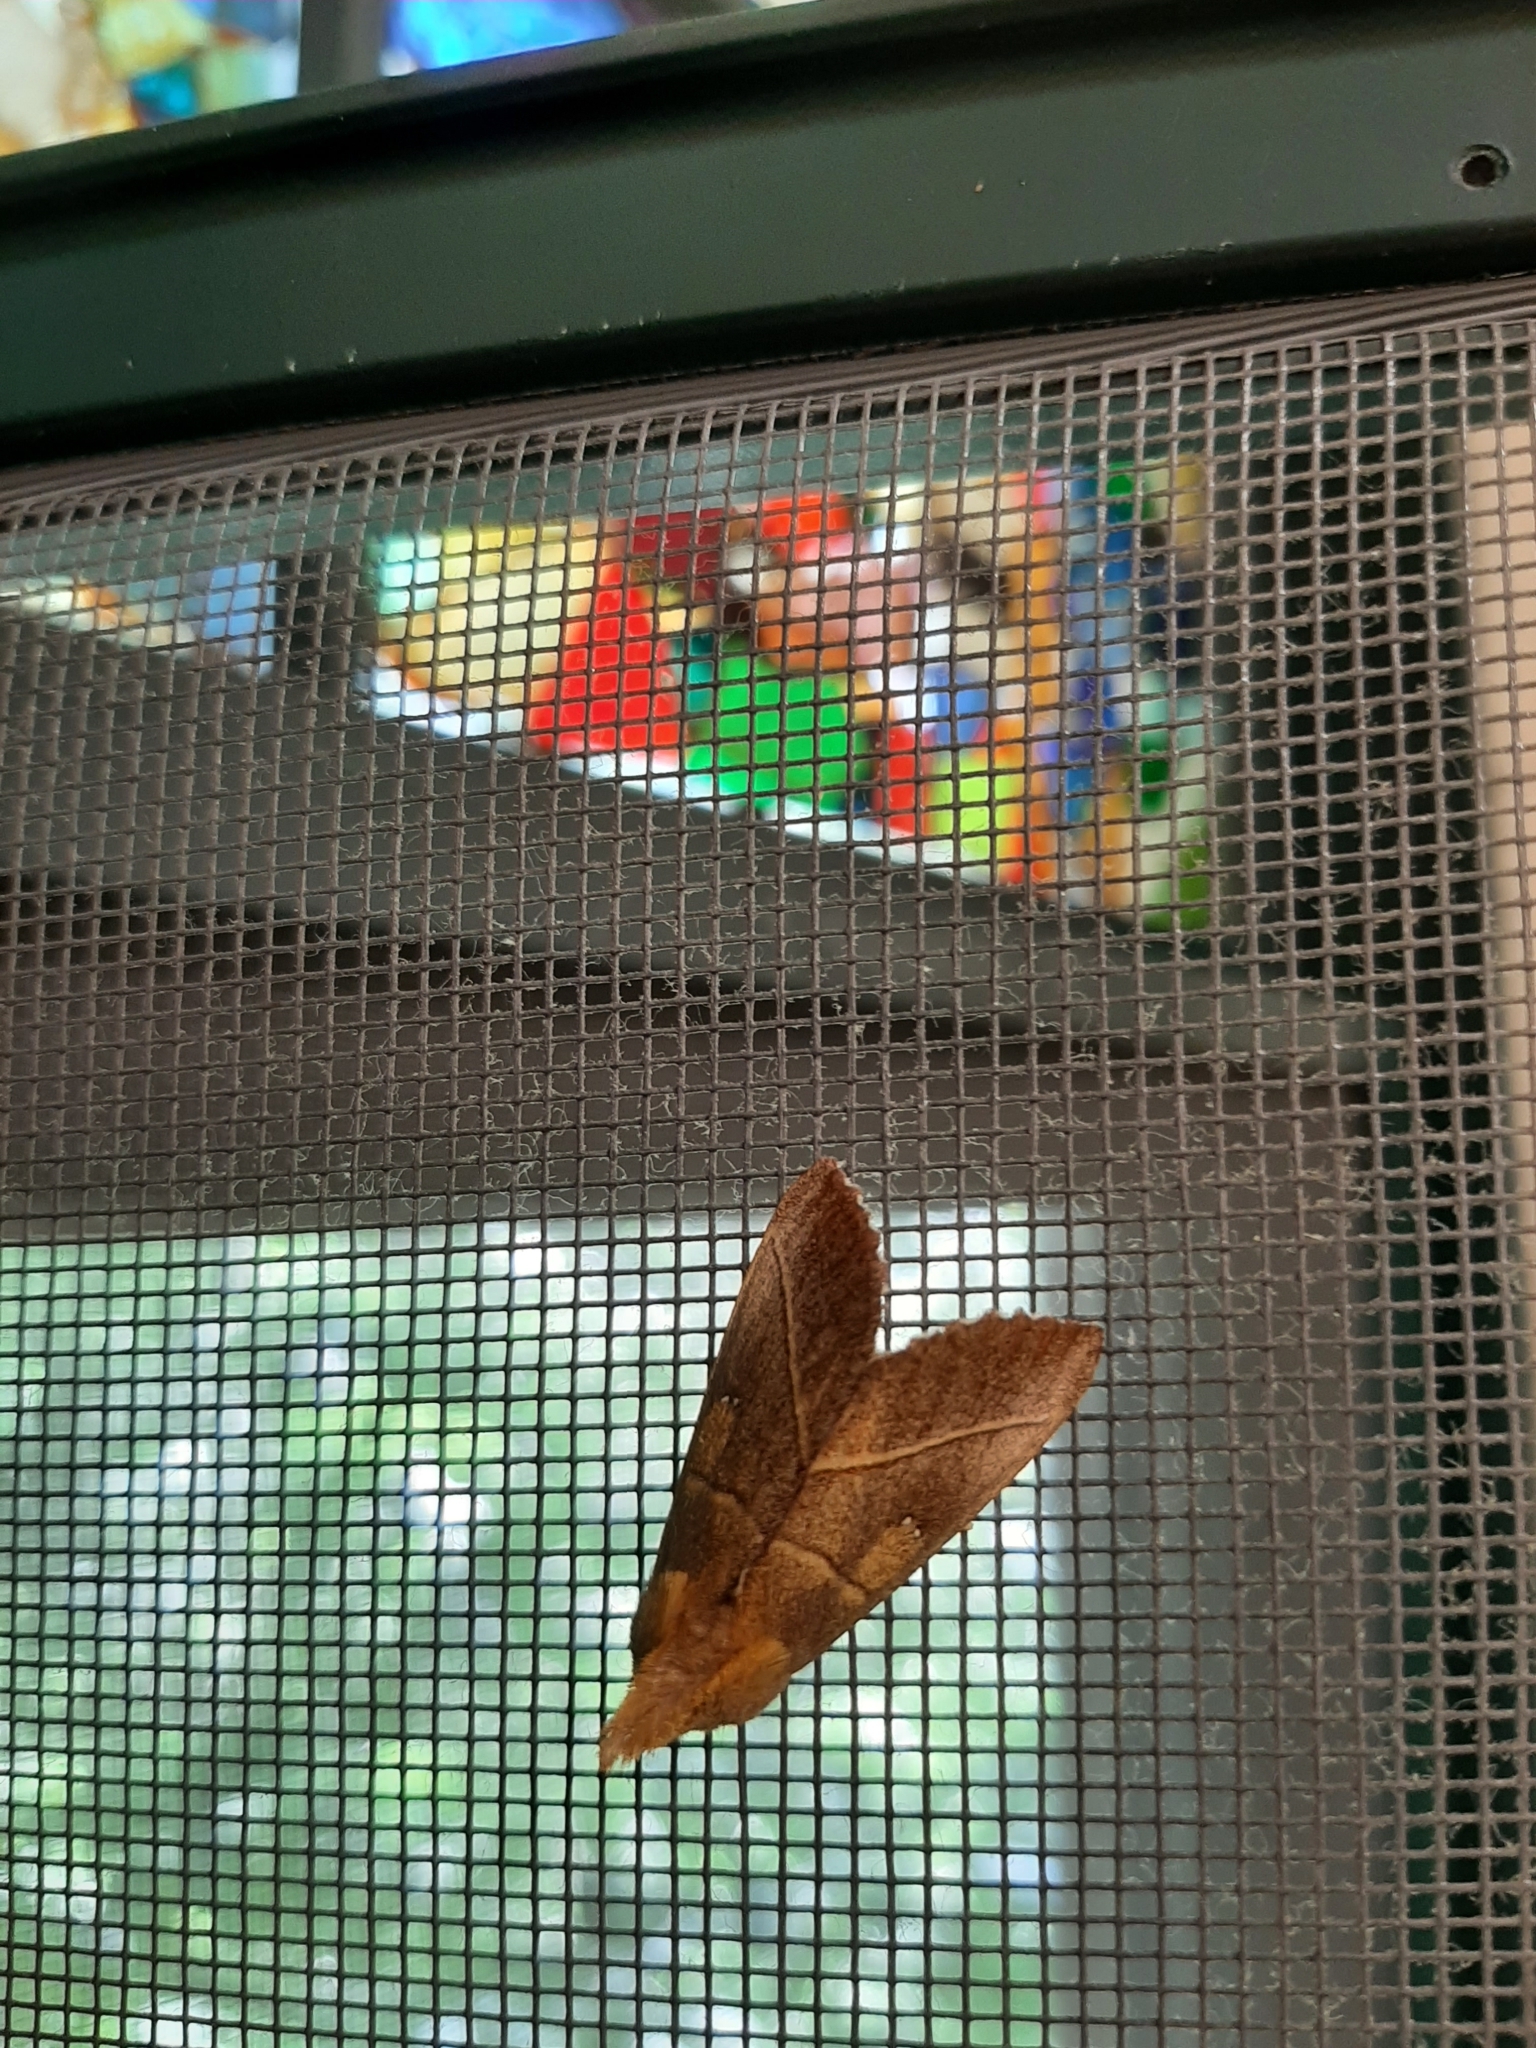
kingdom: Animalia
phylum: Arthropoda
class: Insecta
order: Lepidoptera
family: Notodontidae
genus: Nadata
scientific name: Nadata gibbosa
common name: White-dotted prominent
